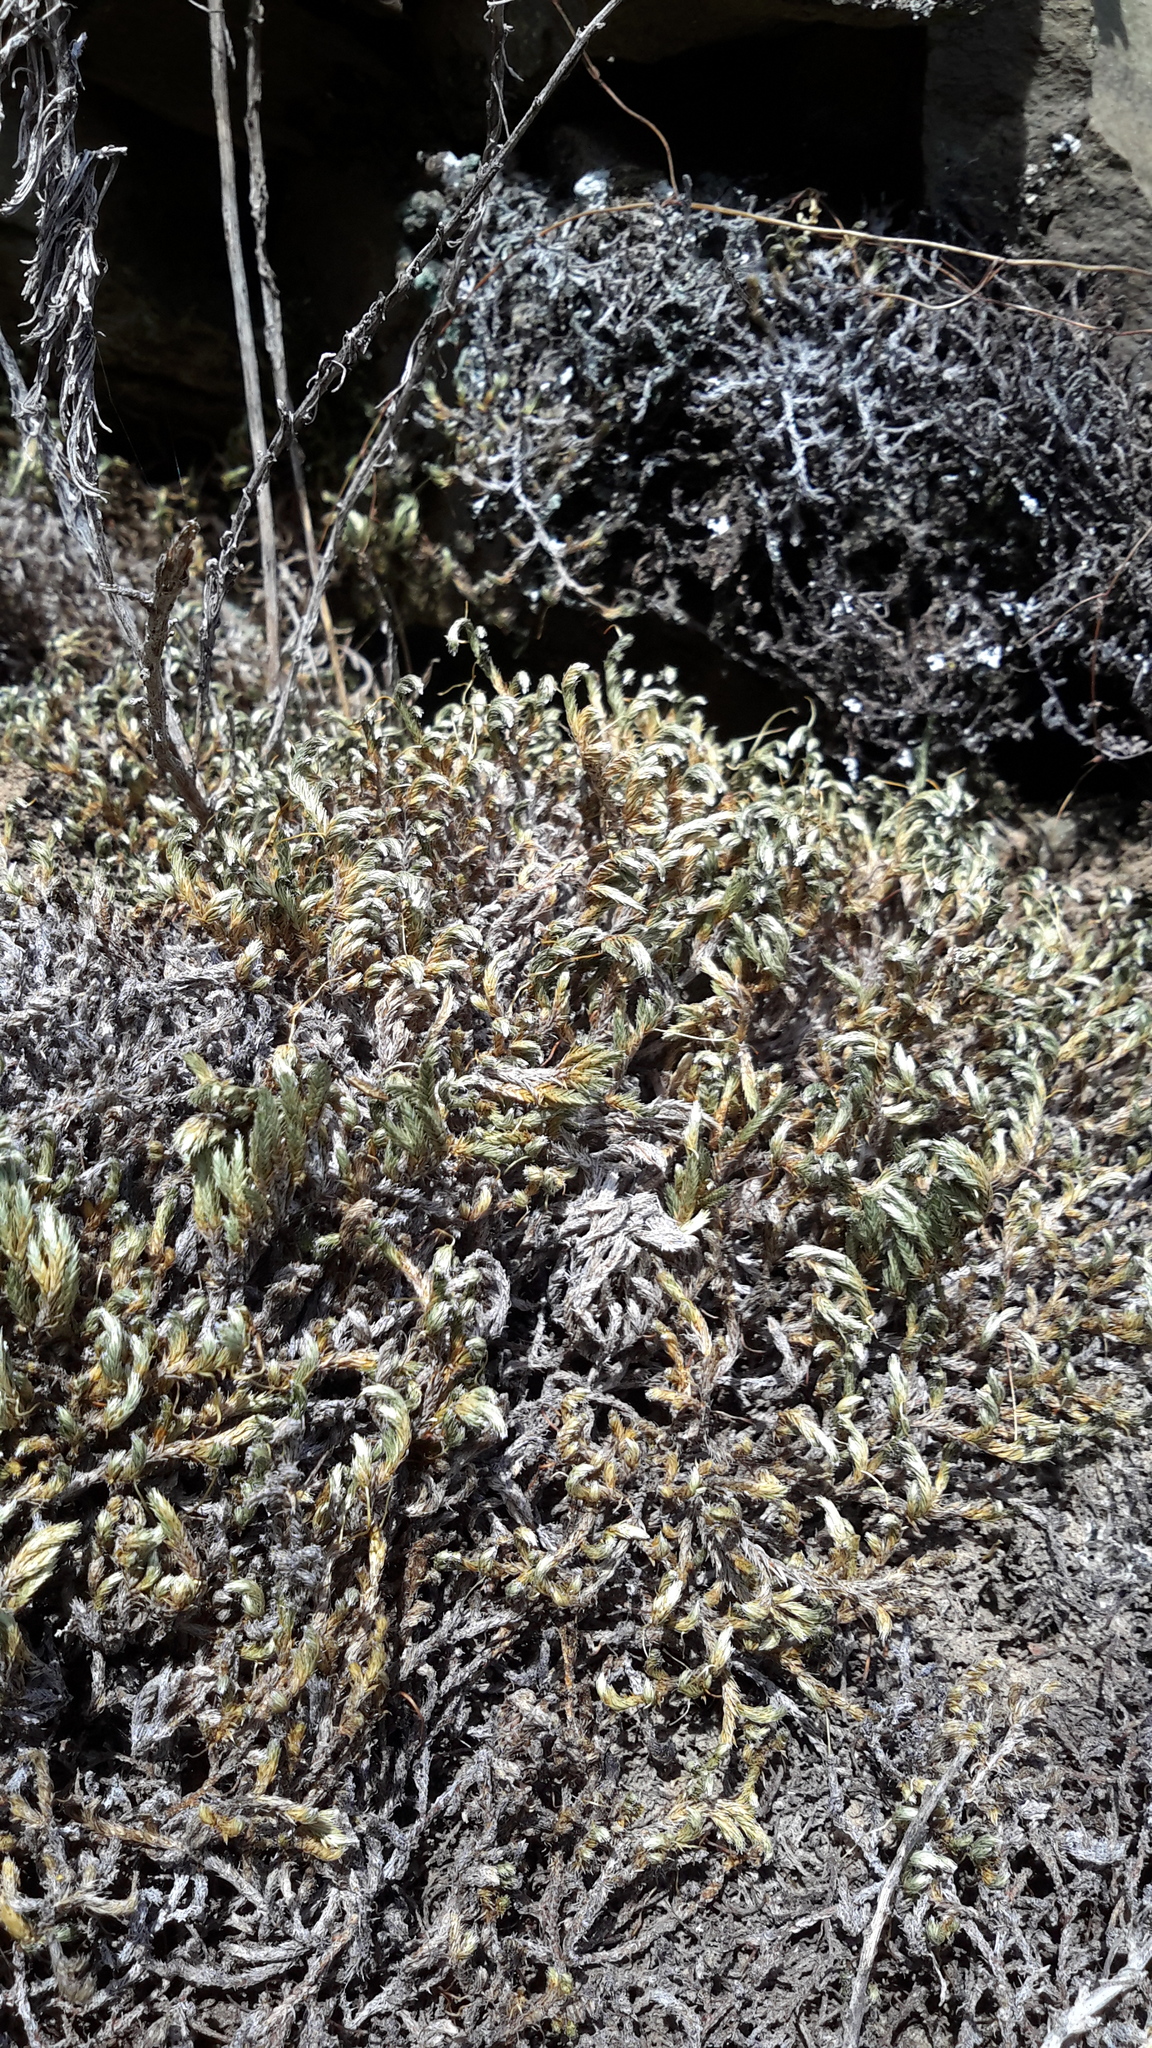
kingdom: Plantae
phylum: Tracheophyta
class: Lycopodiopsida
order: Selaginellales
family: Selaginellaceae
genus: Selaginella
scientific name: Selaginella wallacei
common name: Wallace's selaginella
